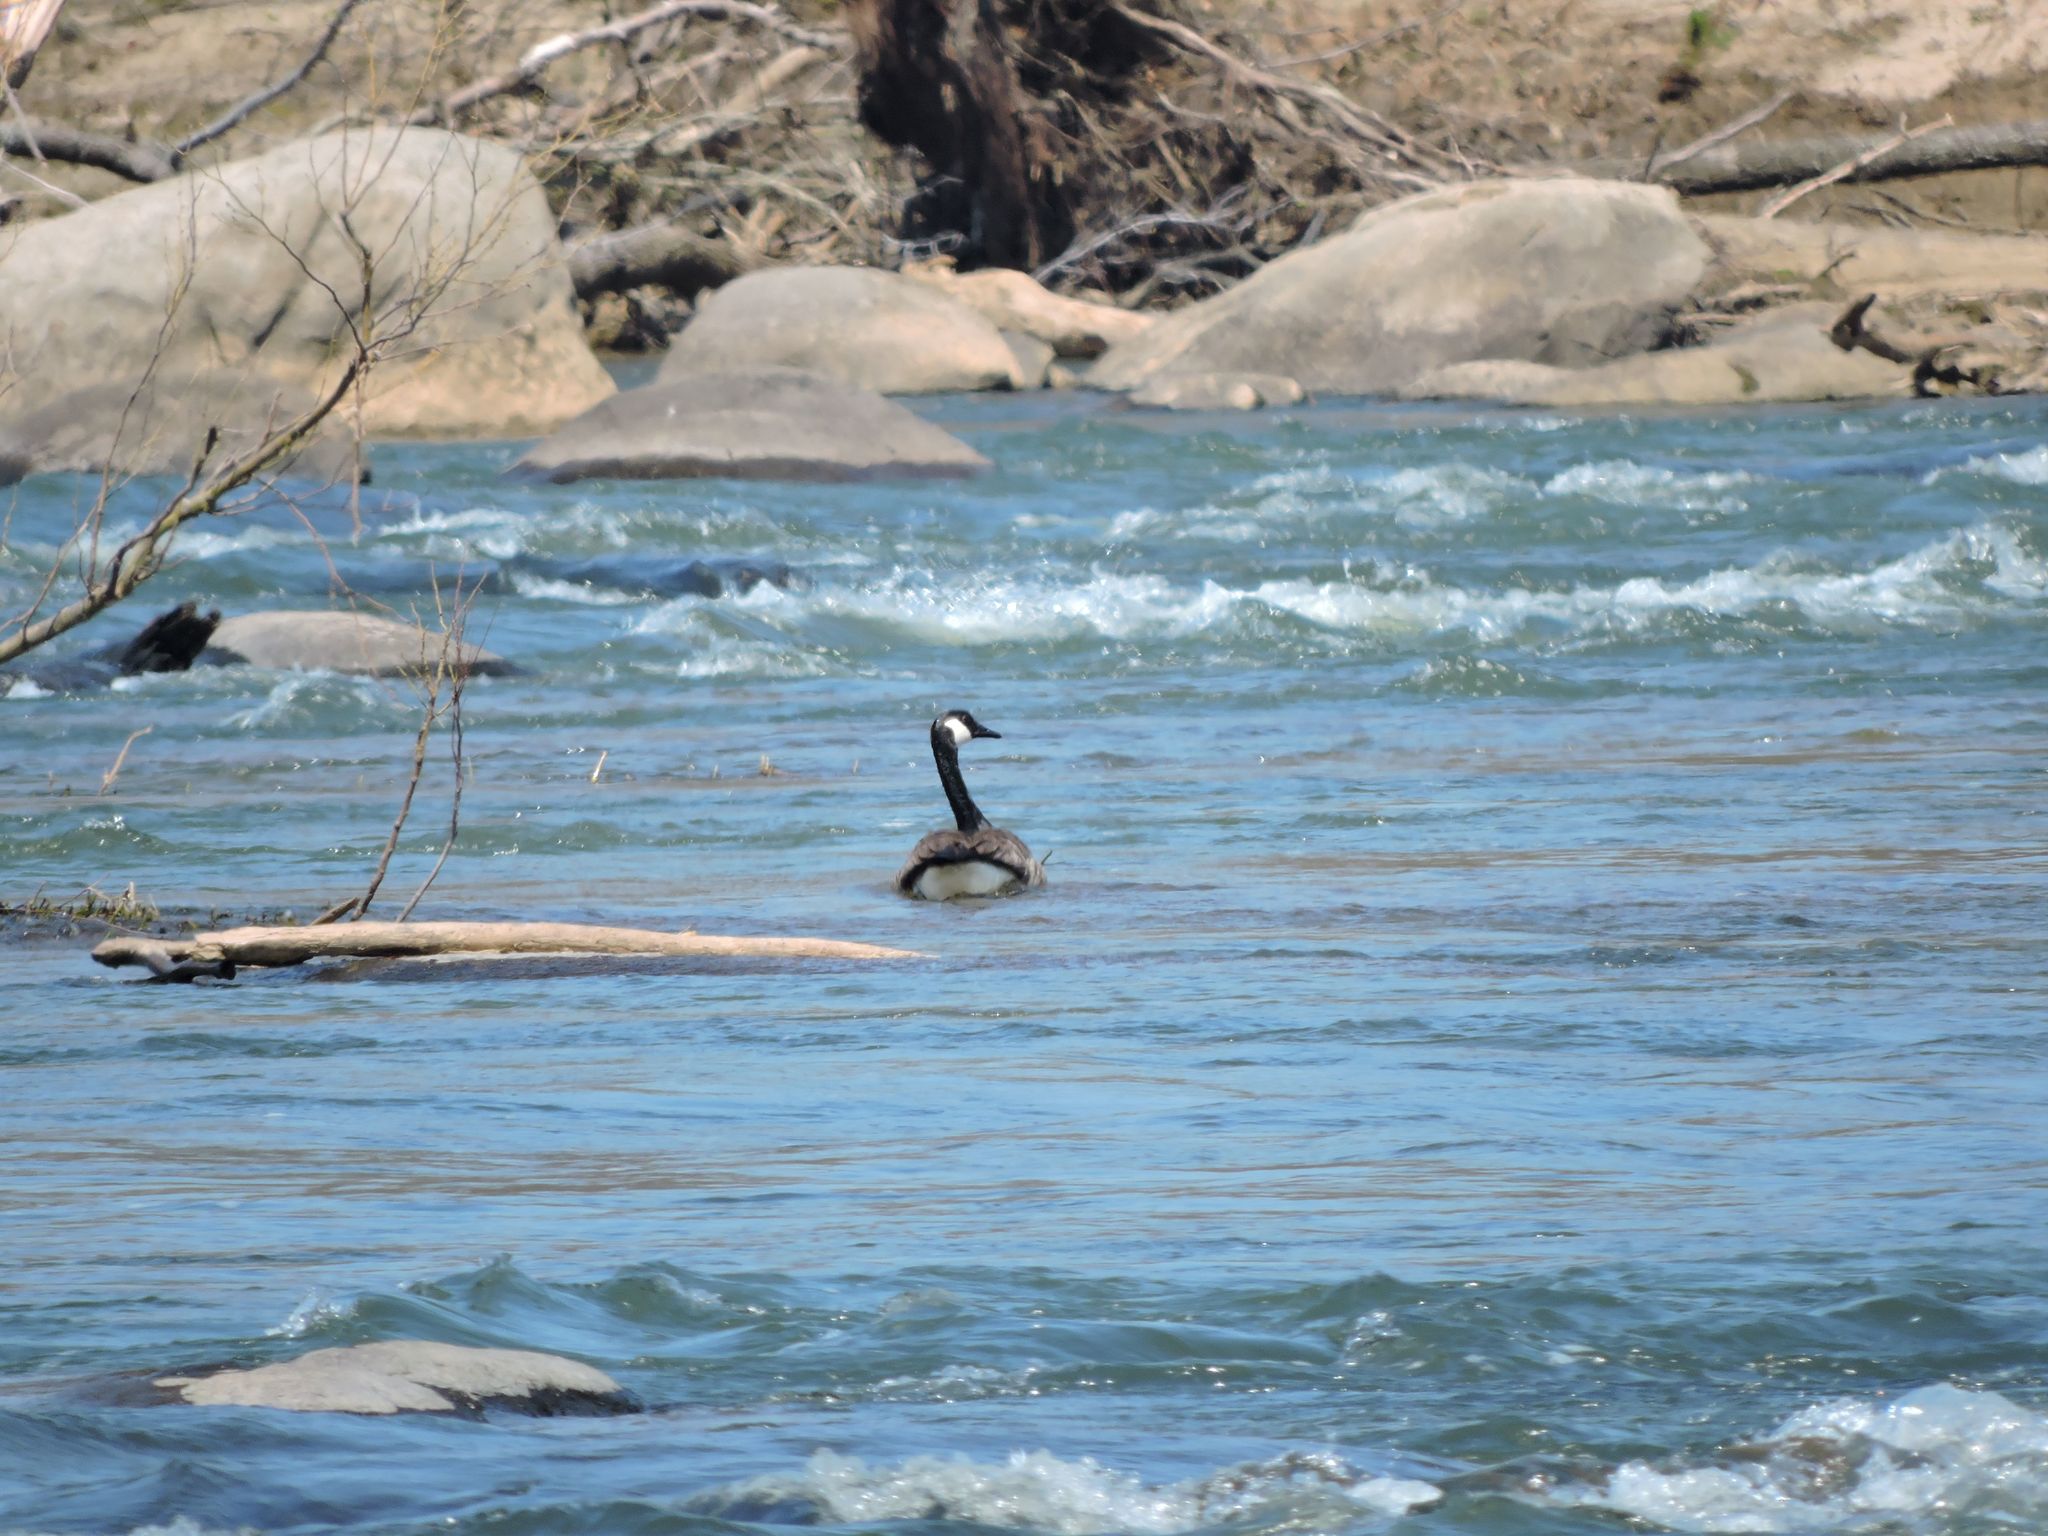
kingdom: Animalia
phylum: Chordata
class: Aves
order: Anseriformes
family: Anatidae
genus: Branta
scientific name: Branta canadensis
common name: Canada goose
